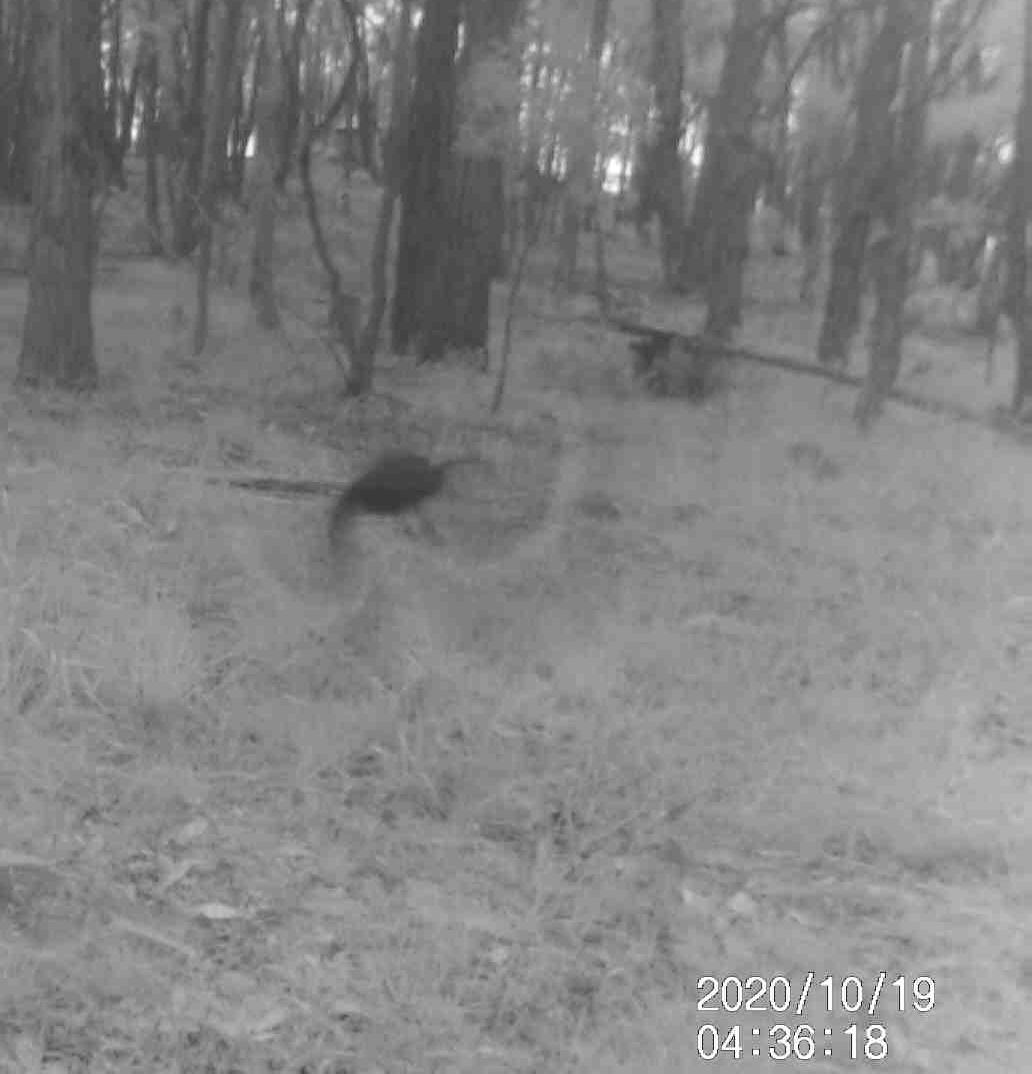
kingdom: Animalia
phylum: Chordata
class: Aves
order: Passeriformes
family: Cracticidae
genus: Strepera
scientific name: Strepera graculina
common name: Pied currawong
